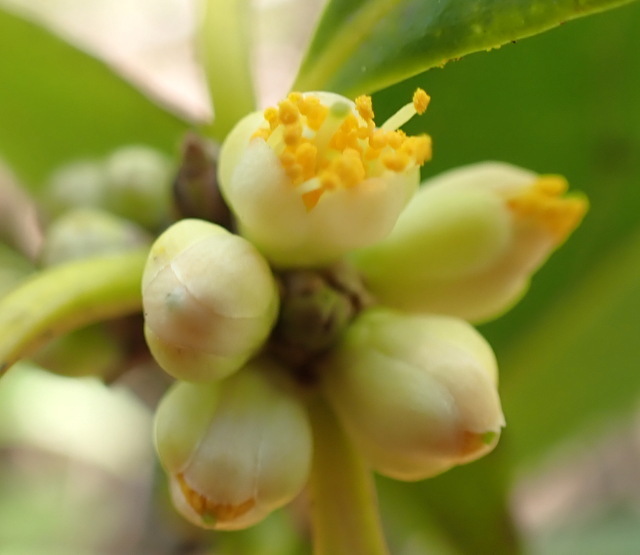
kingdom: Plantae
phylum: Tracheophyta
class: Magnoliopsida
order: Ericales
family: Symplocaceae
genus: Symplocos
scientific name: Symplocos tinctoria
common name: Horse-sugar
